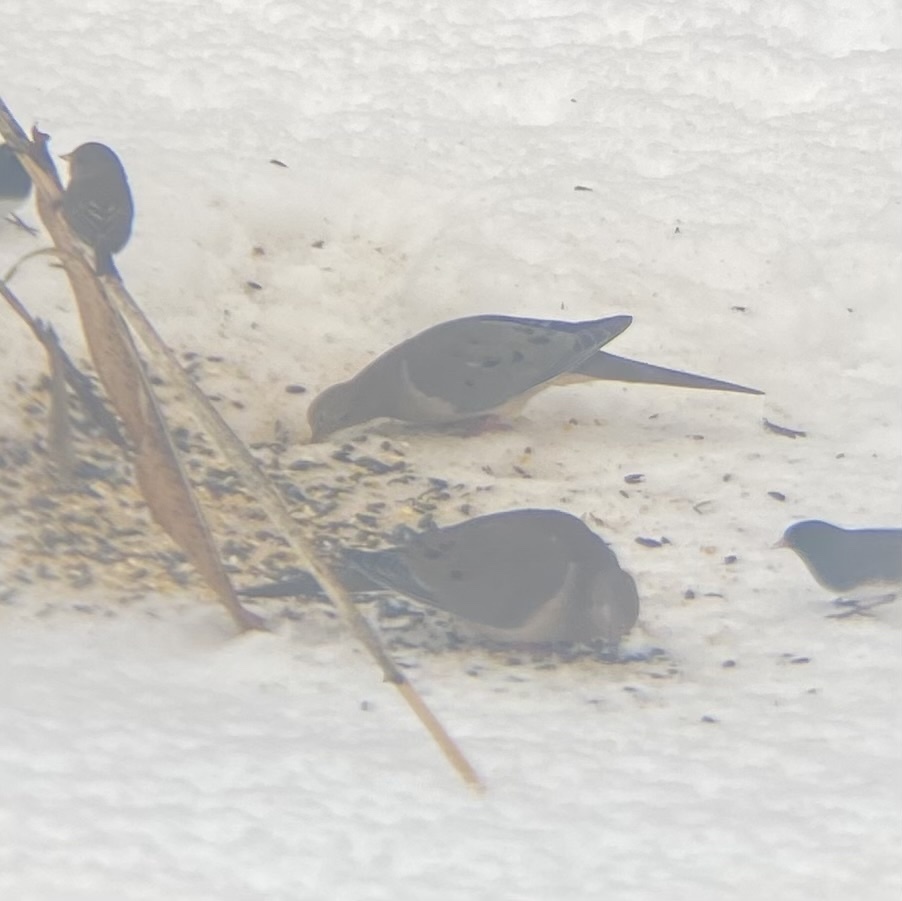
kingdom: Animalia
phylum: Chordata
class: Aves
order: Columbiformes
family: Columbidae
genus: Zenaida
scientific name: Zenaida macroura
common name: Mourning dove
